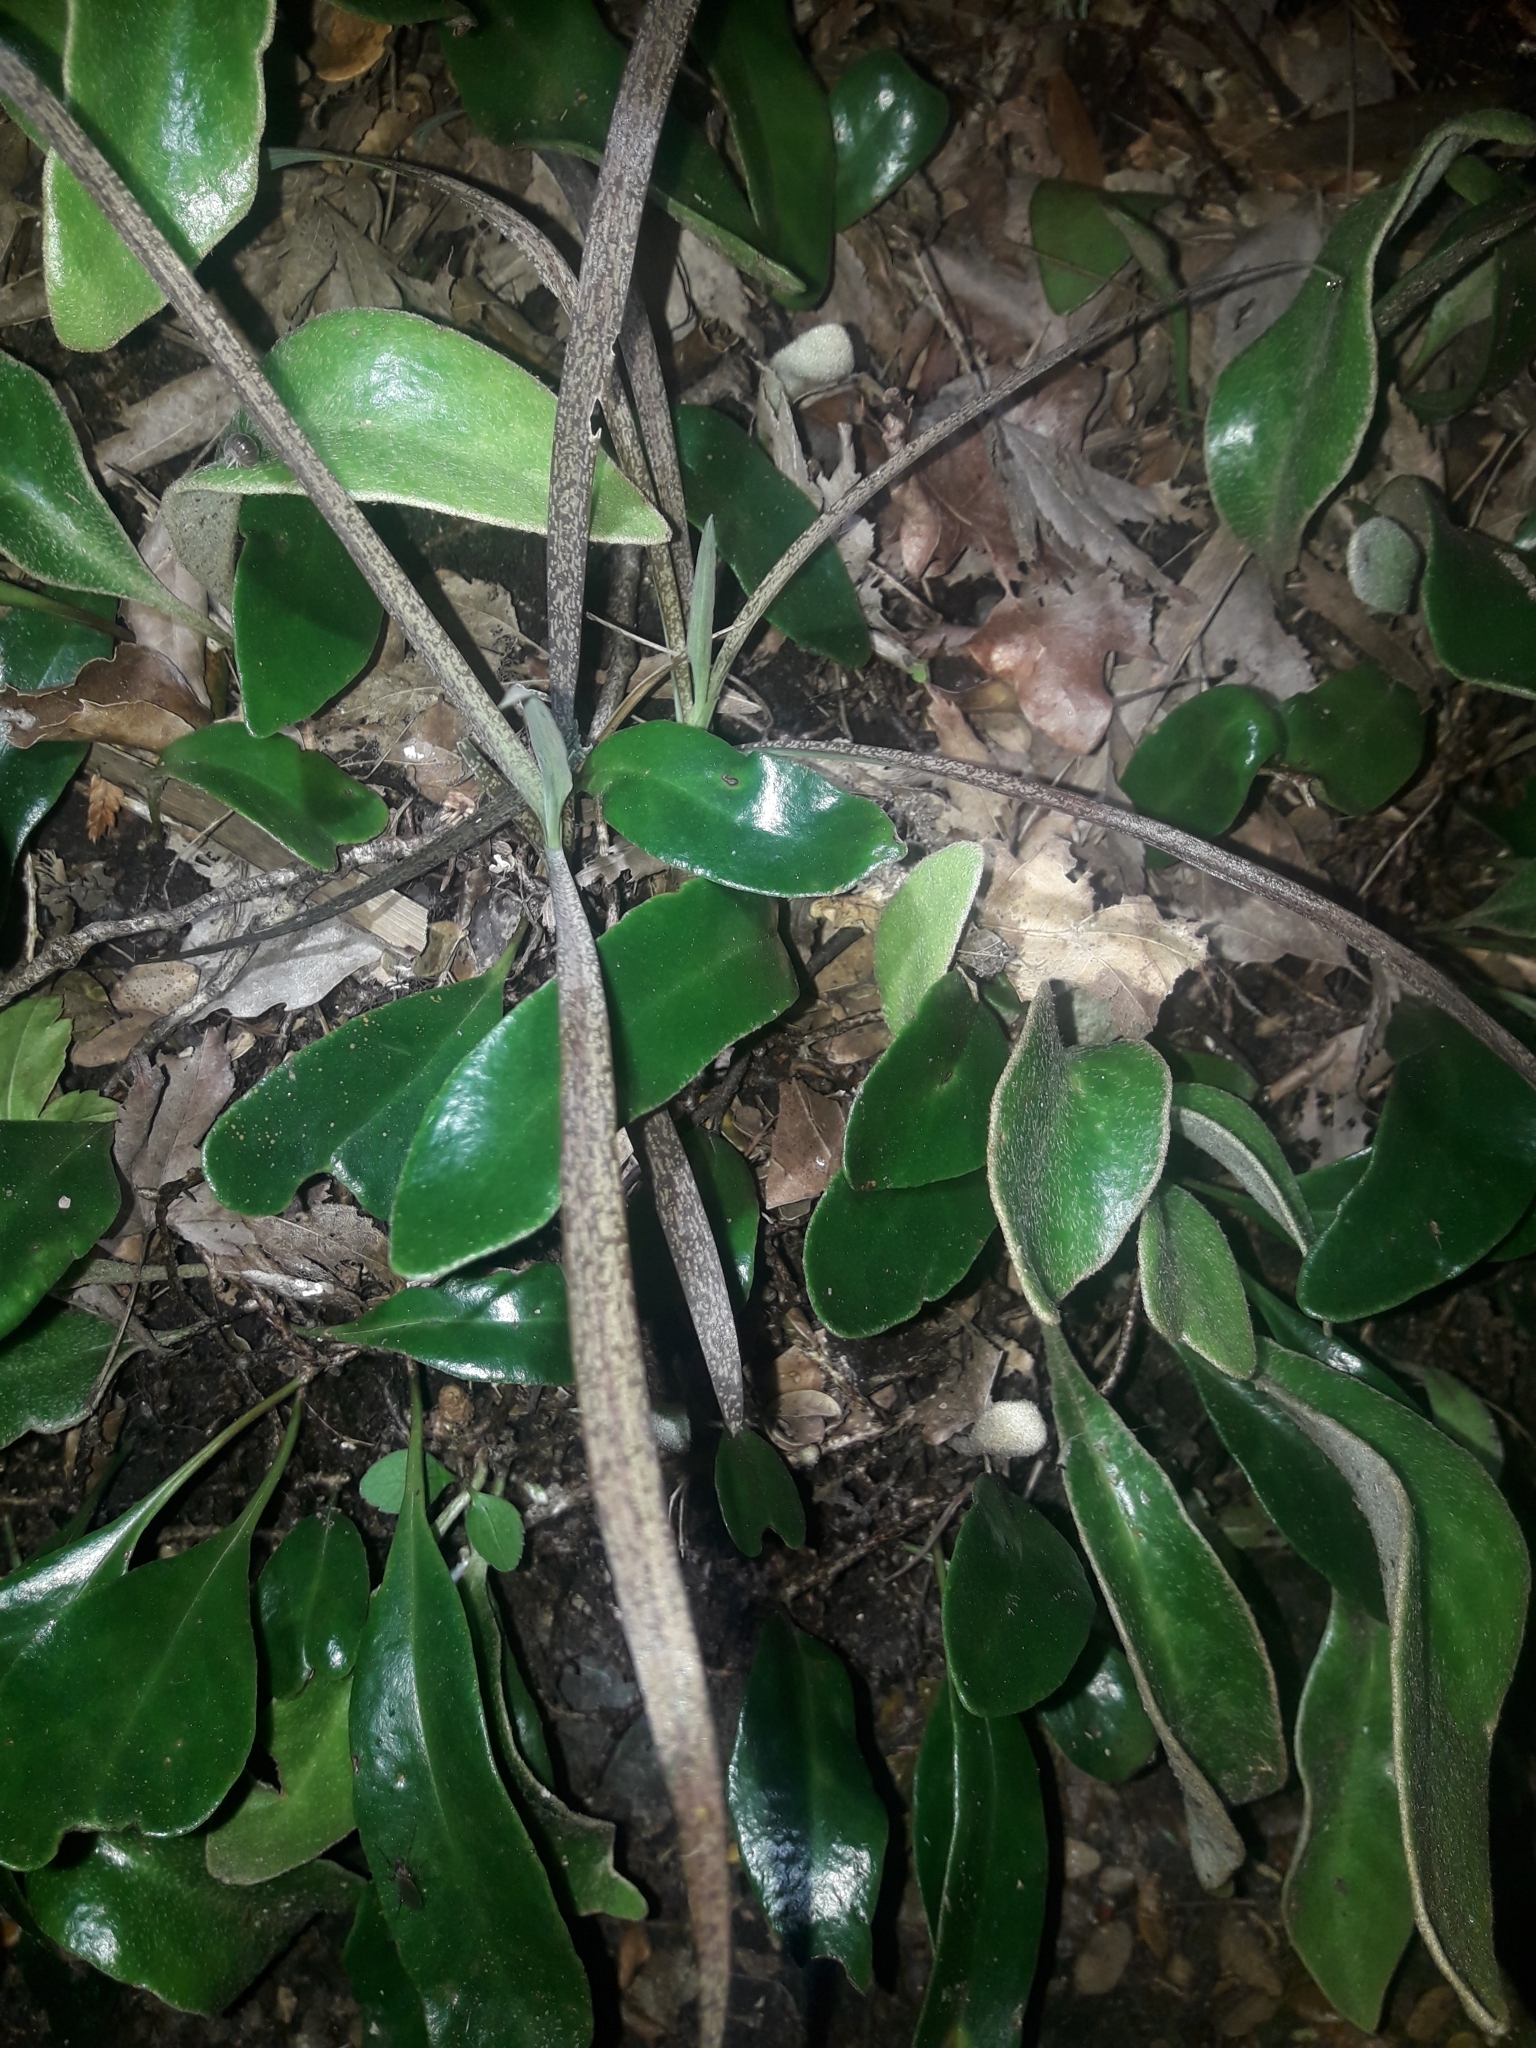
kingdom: Plantae
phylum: Tracheophyta
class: Liliopsida
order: Asparagales
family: Asparagaceae
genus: Arthropodium
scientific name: Arthropodium candidum
